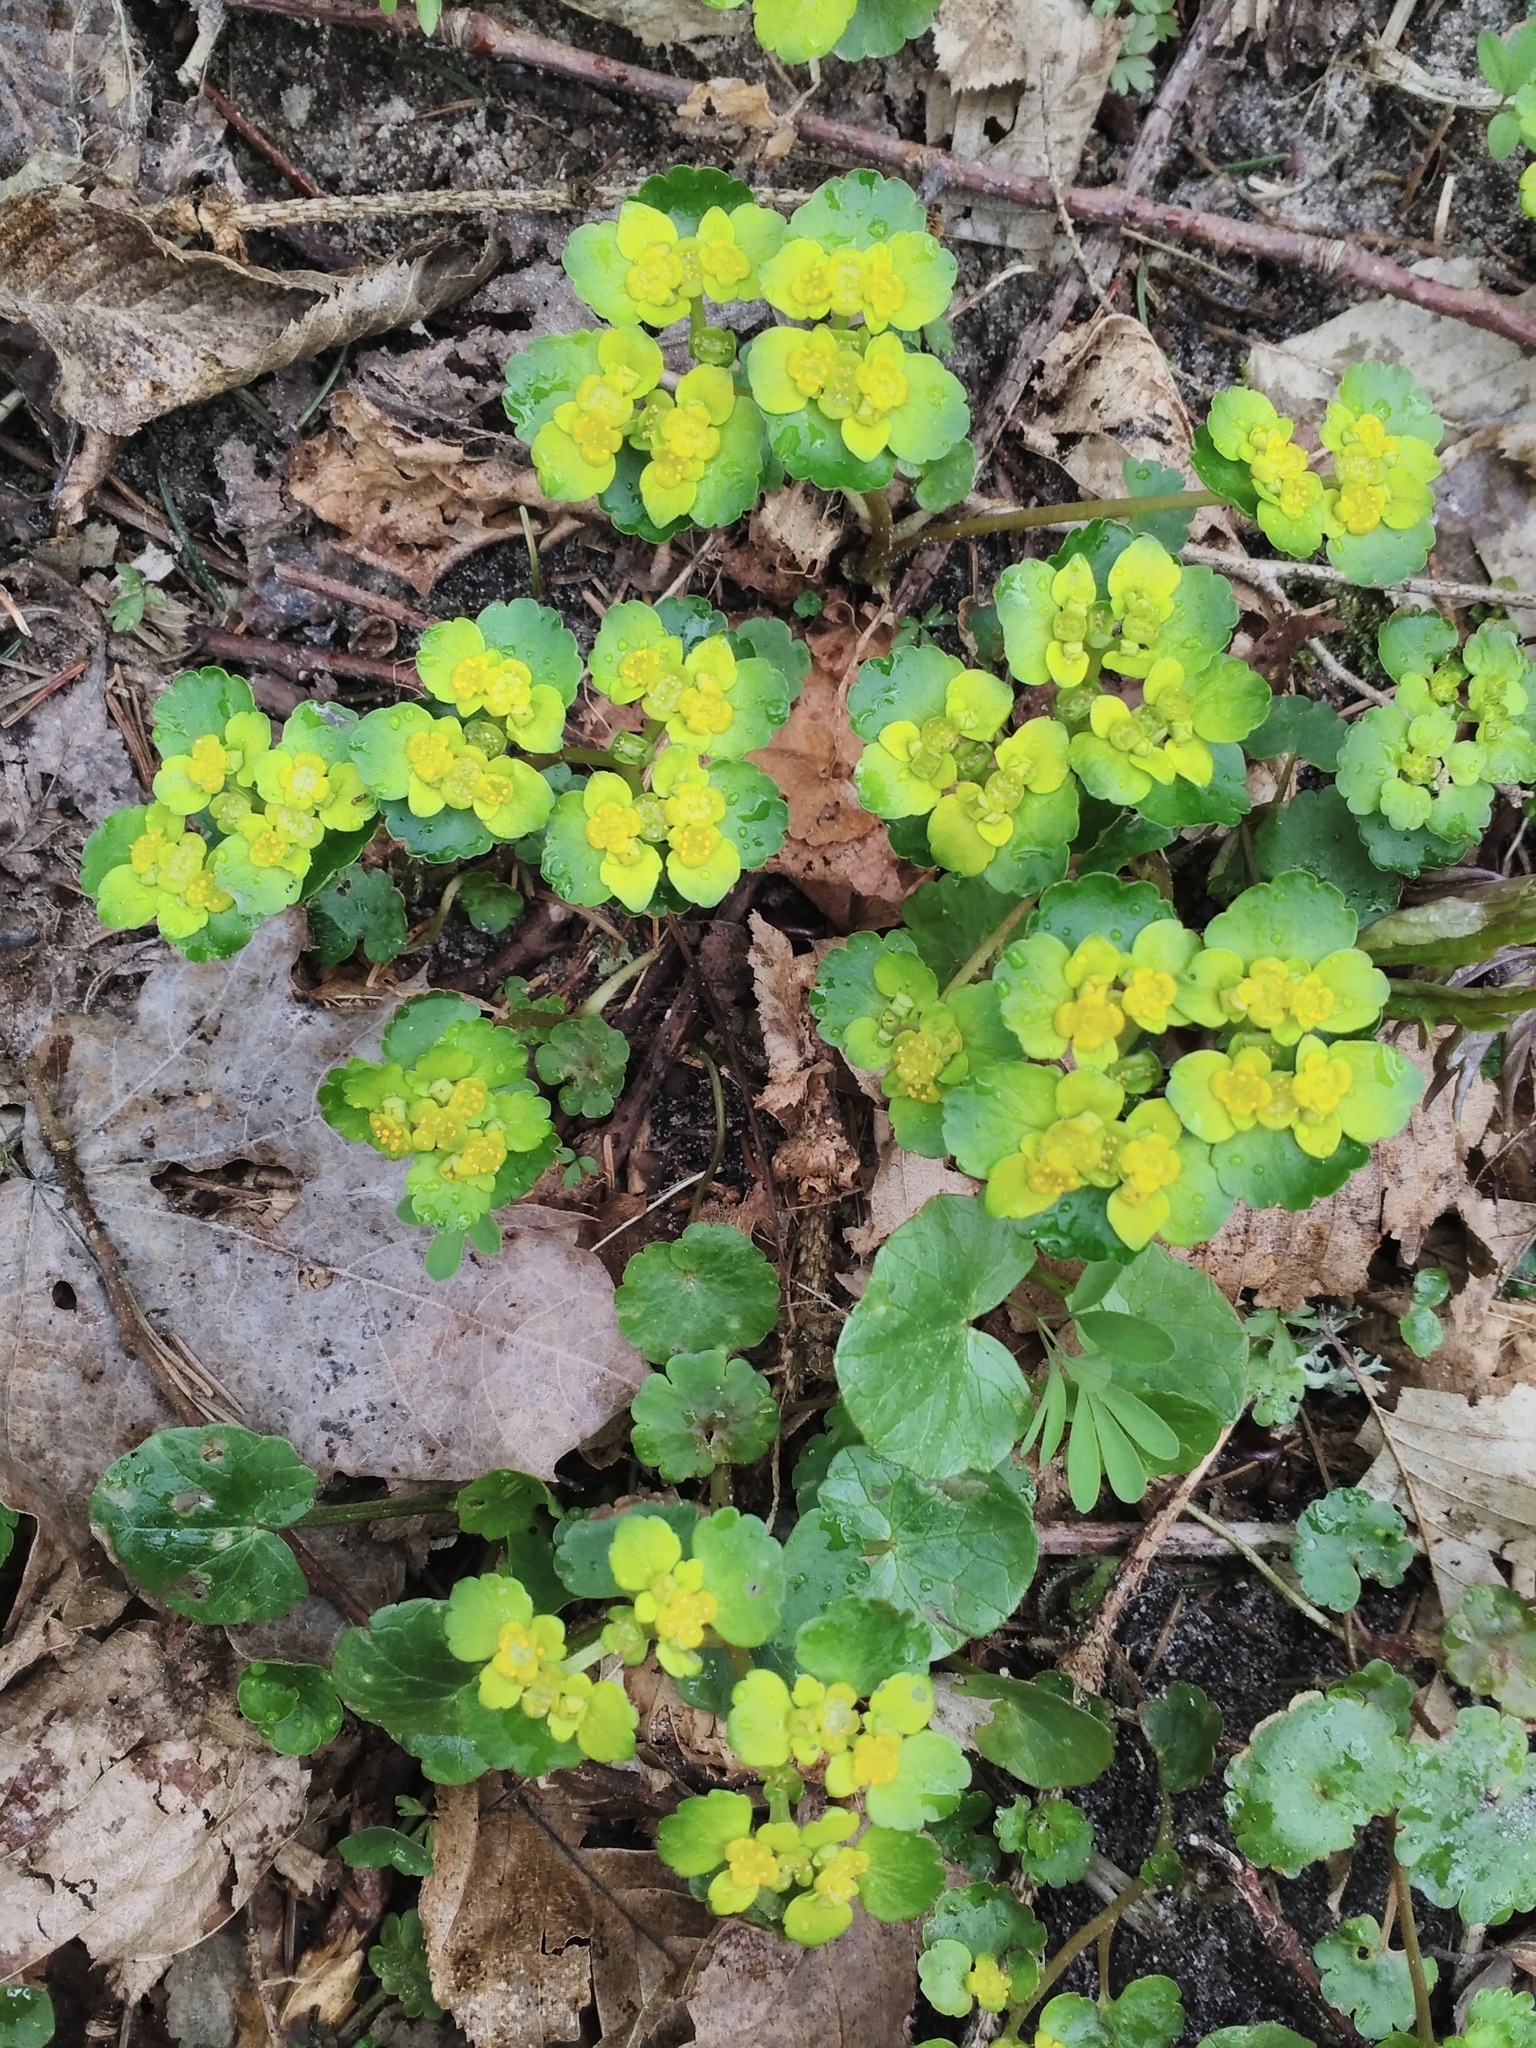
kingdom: Plantae
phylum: Tracheophyta
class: Magnoliopsida
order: Saxifragales
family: Saxifragaceae
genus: Chrysosplenium
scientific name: Chrysosplenium alternifolium
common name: Alternate-leaved golden-saxifrage
